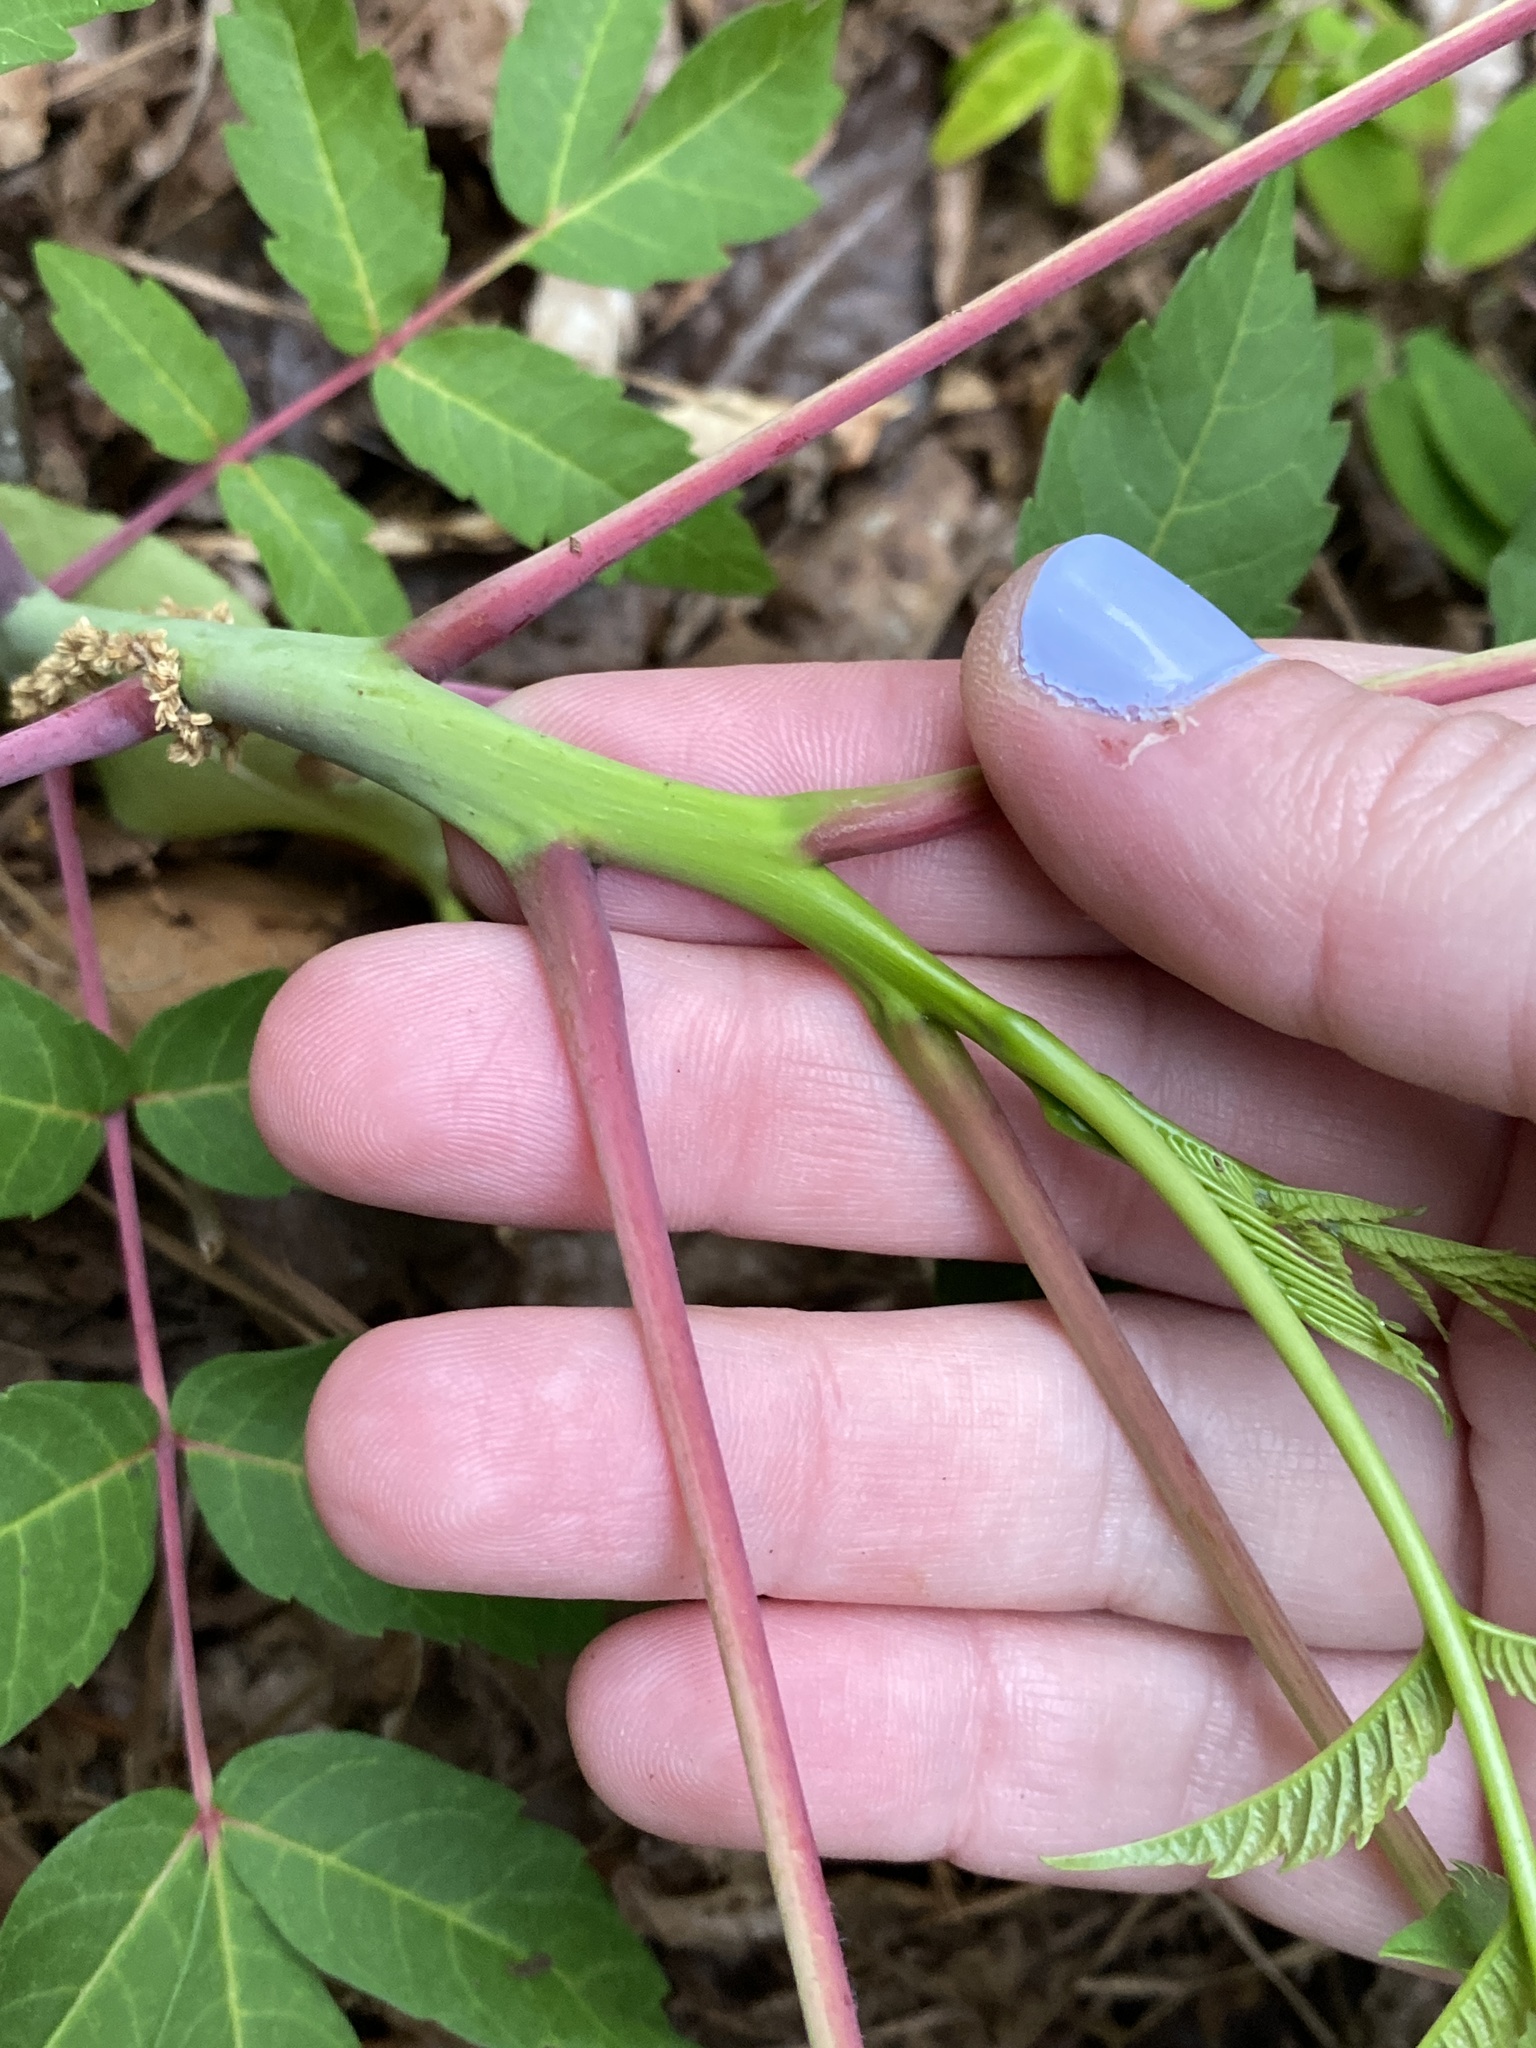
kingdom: Plantae
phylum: Tracheophyta
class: Magnoliopsida
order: Sapindales
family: Anacardiaceae
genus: Rhus
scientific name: Rhus glabra
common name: Scarlet sumac
